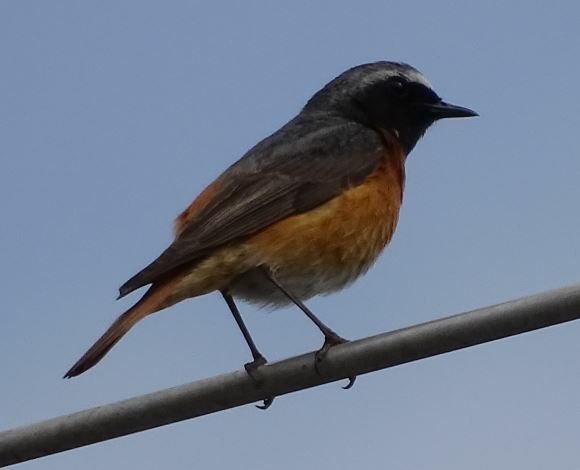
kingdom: Animalia
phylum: Chordata
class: Aves
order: Passeriformes
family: Muscicapidae
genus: Phoenicurus
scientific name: Phoenicurus phoenicurus
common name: Common redstart
